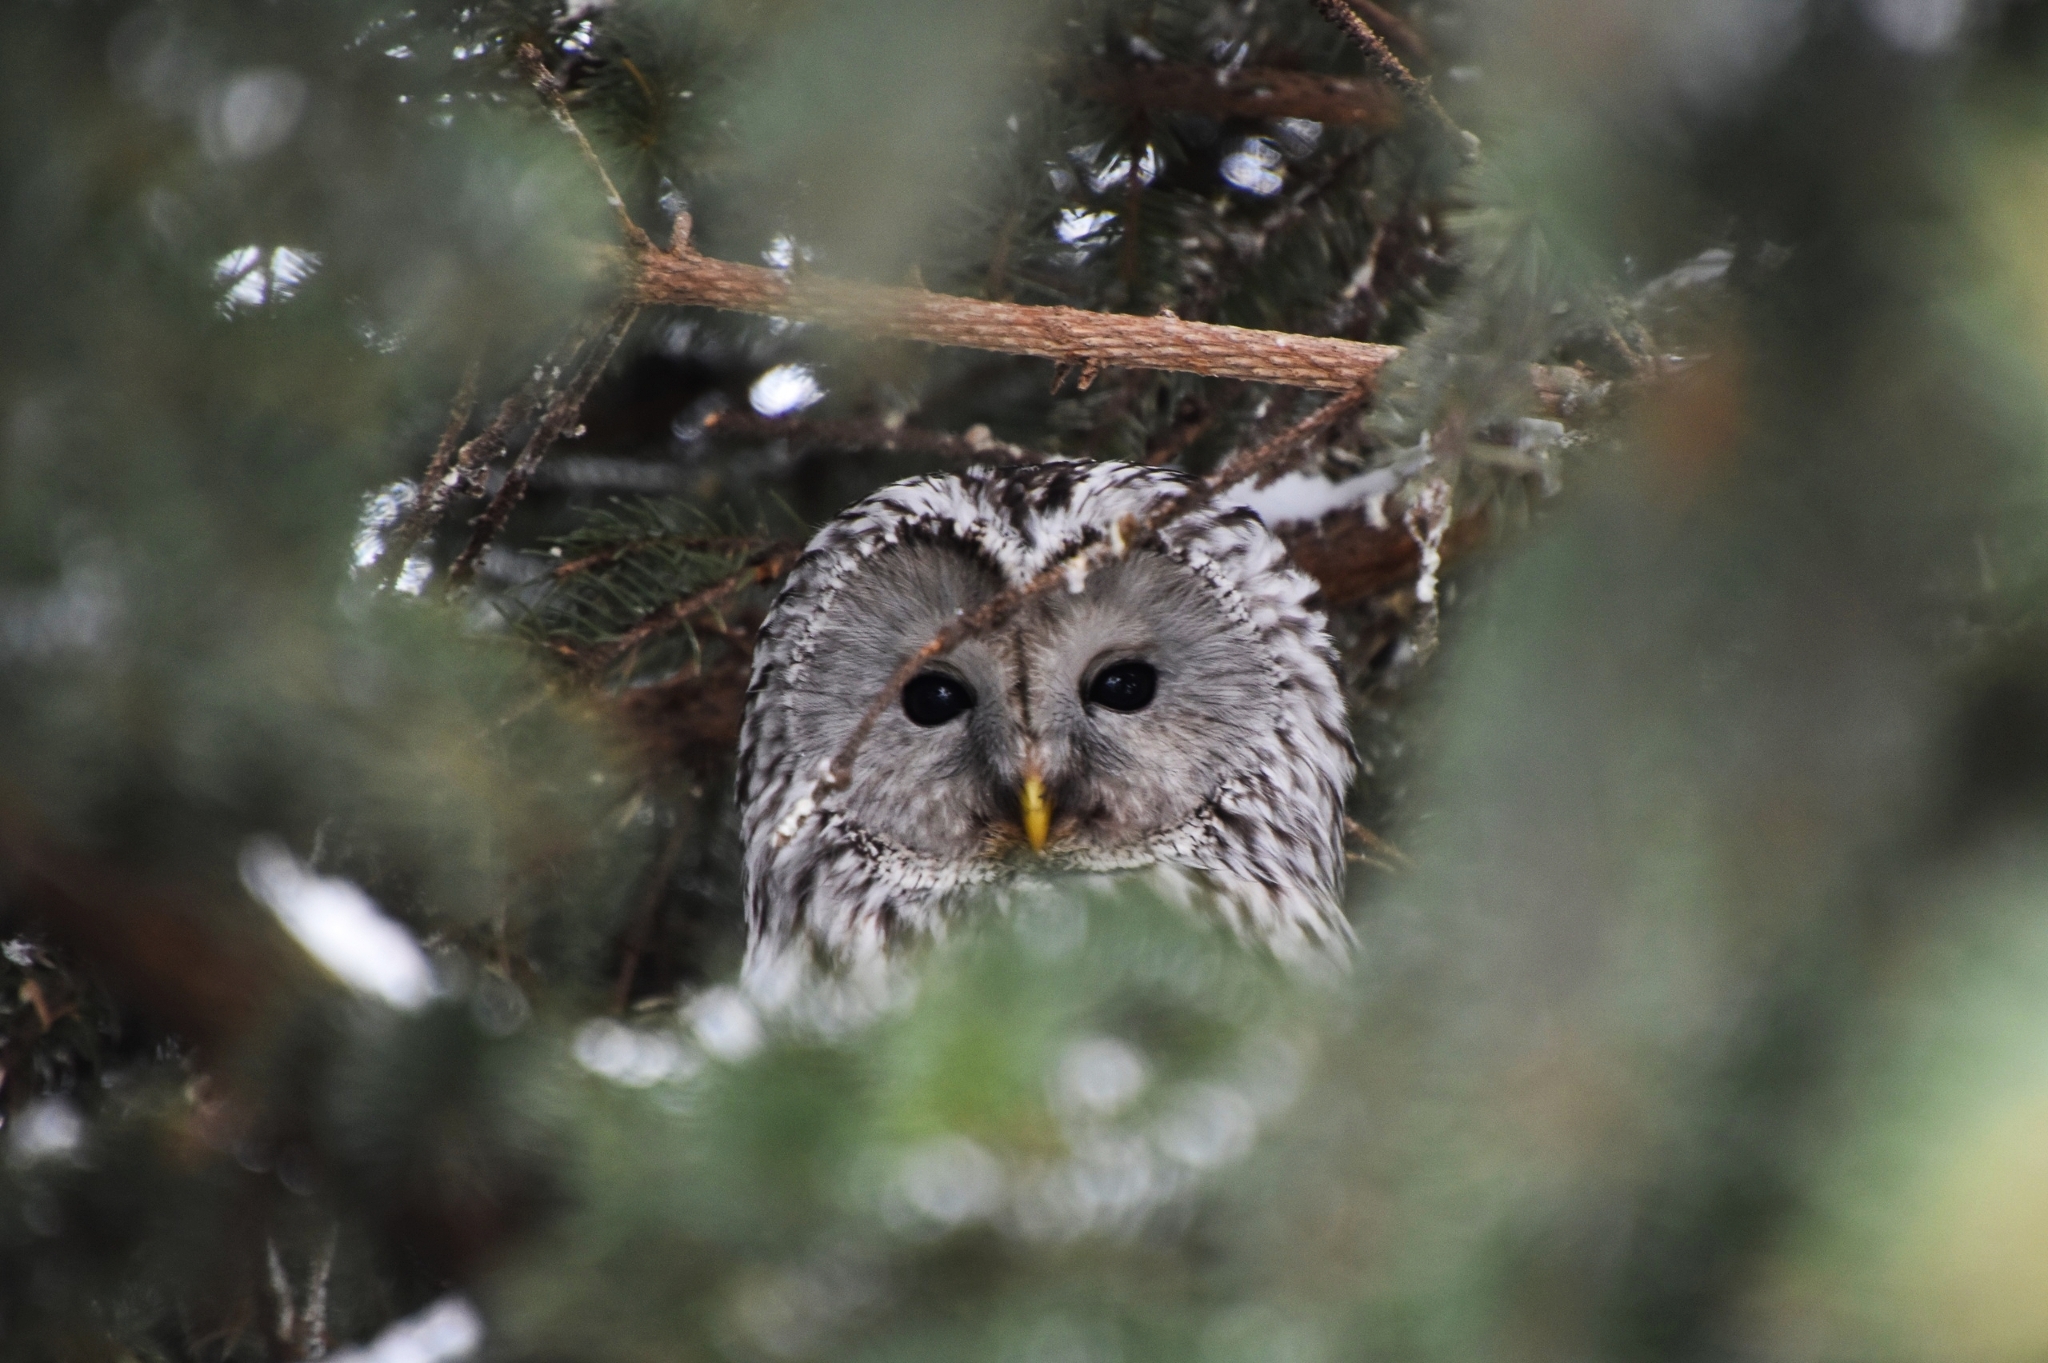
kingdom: Animalia
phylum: Chordata
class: Aves
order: Strigiformes
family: Strigidae
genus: Strix
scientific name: Strix uralensis
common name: Ural owl
